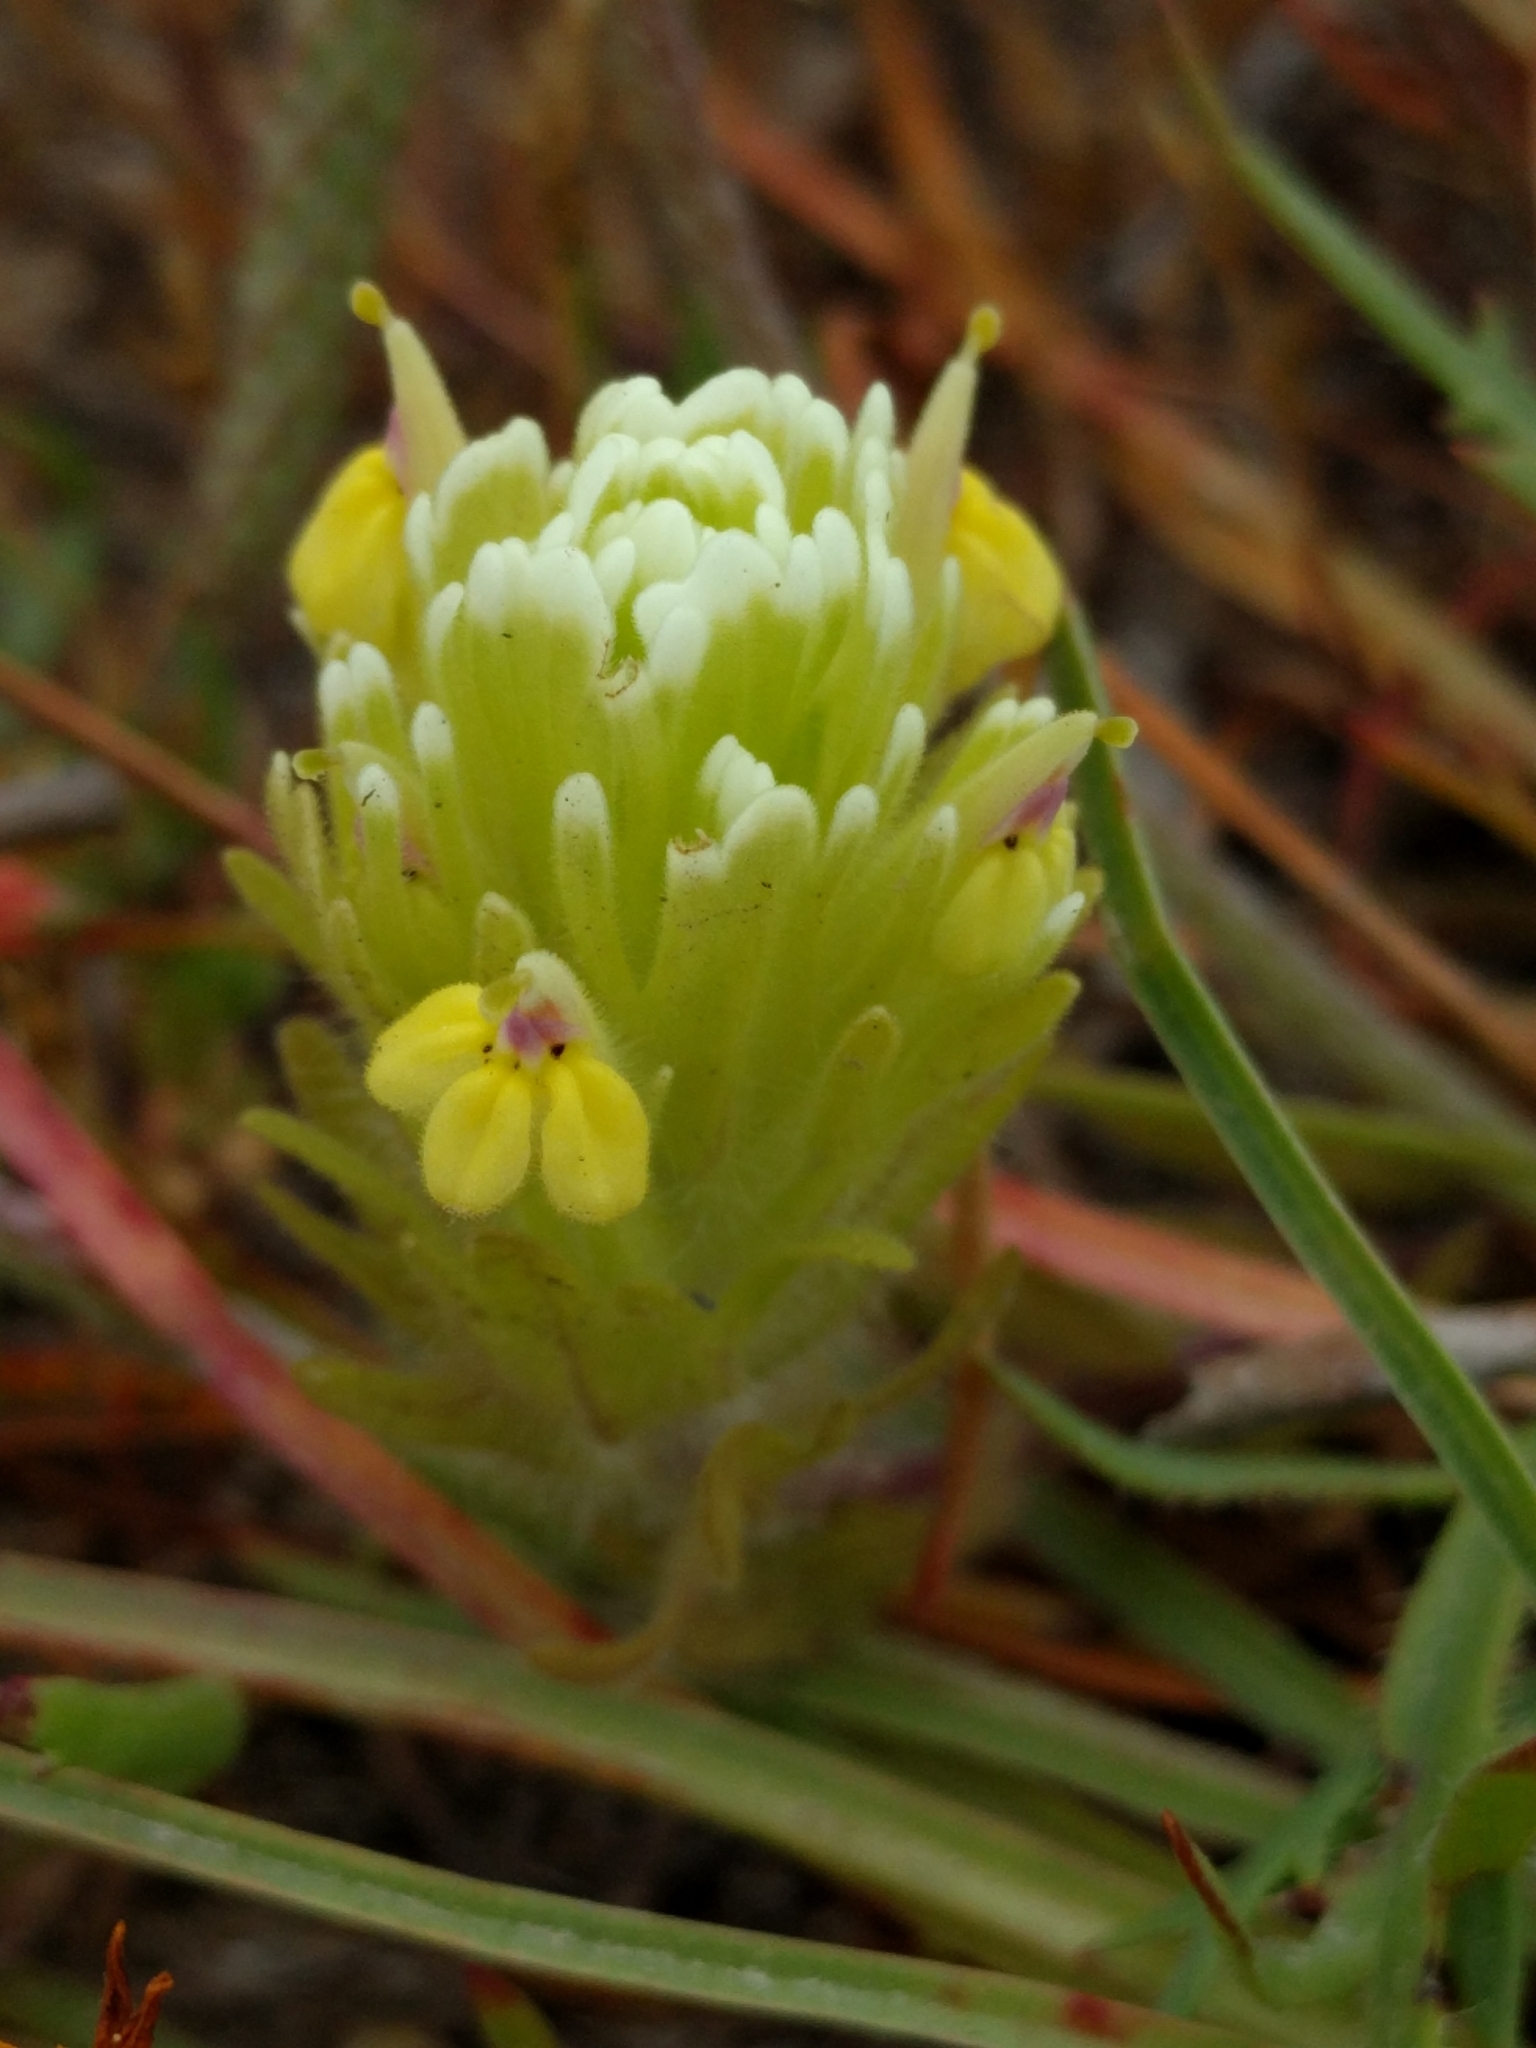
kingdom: Plantae
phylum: Tracheophyta
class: Magnoliopsida
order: Lamiales
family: Orobanchaceae
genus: Castilleja
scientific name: Castilleja ambigua
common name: Johnny-nip
